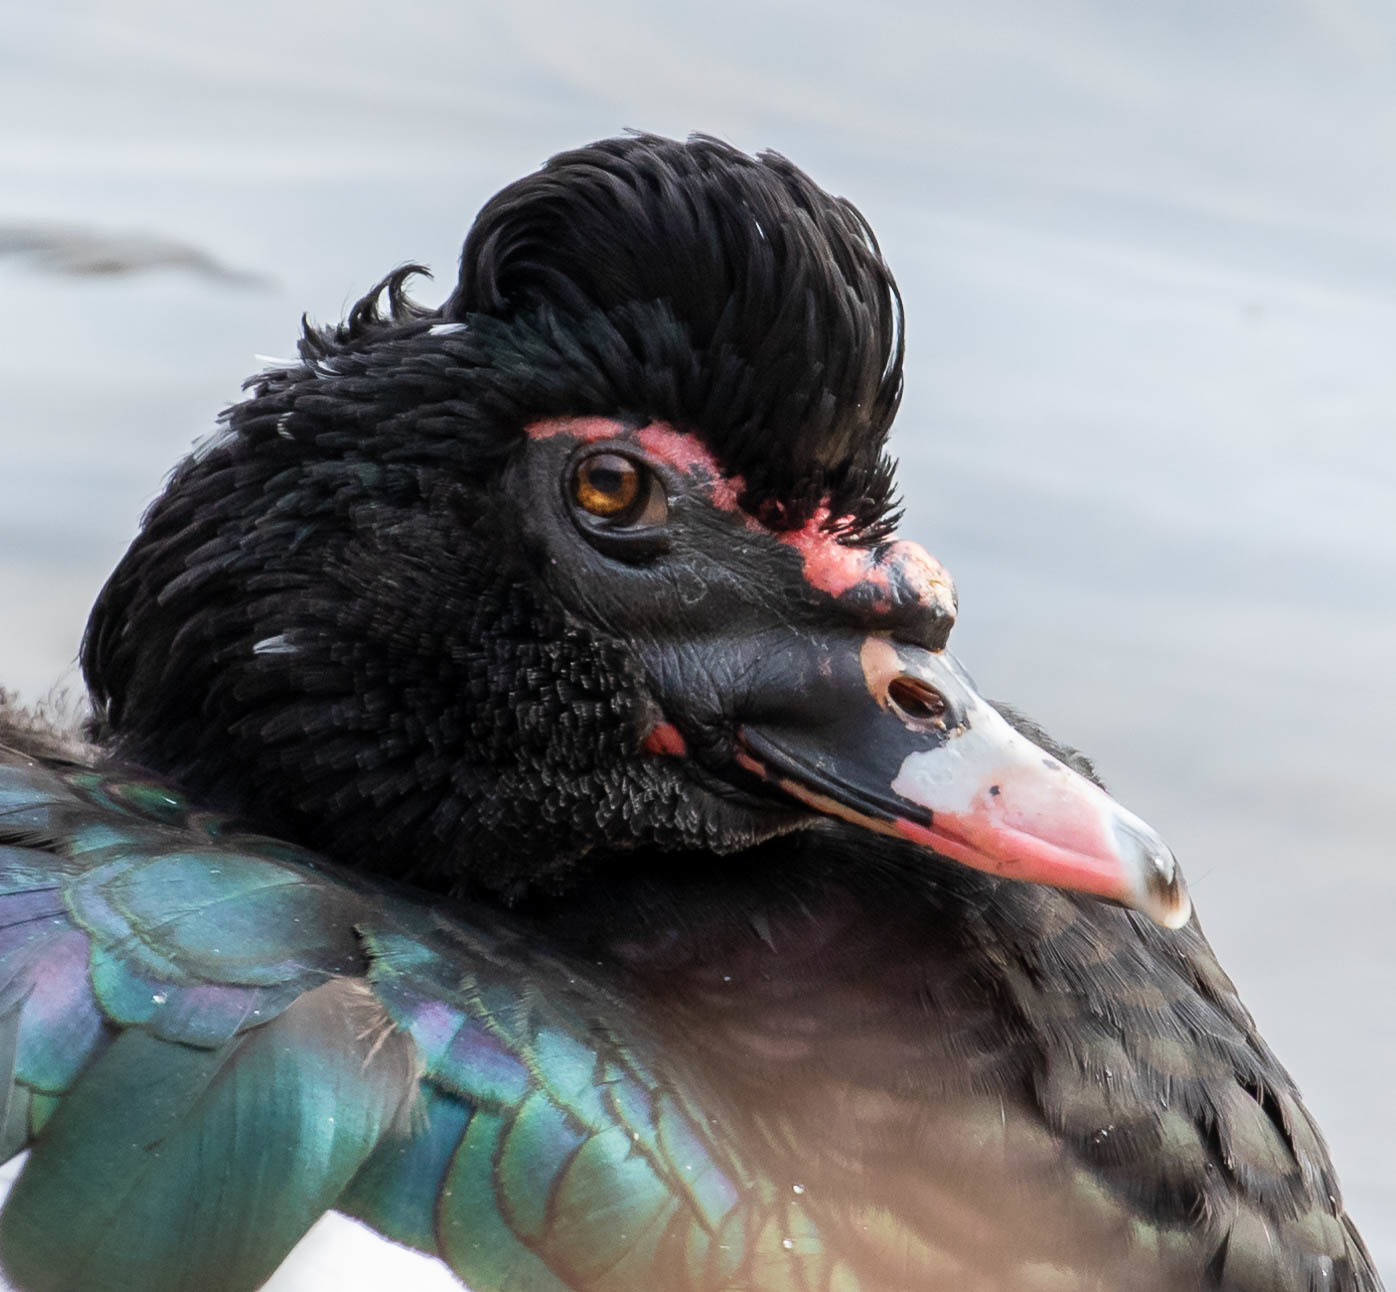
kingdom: Animalia
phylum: Chordata
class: Aves
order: Anseriformes
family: Anatidae
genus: Cairina
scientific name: Cairina moschata
